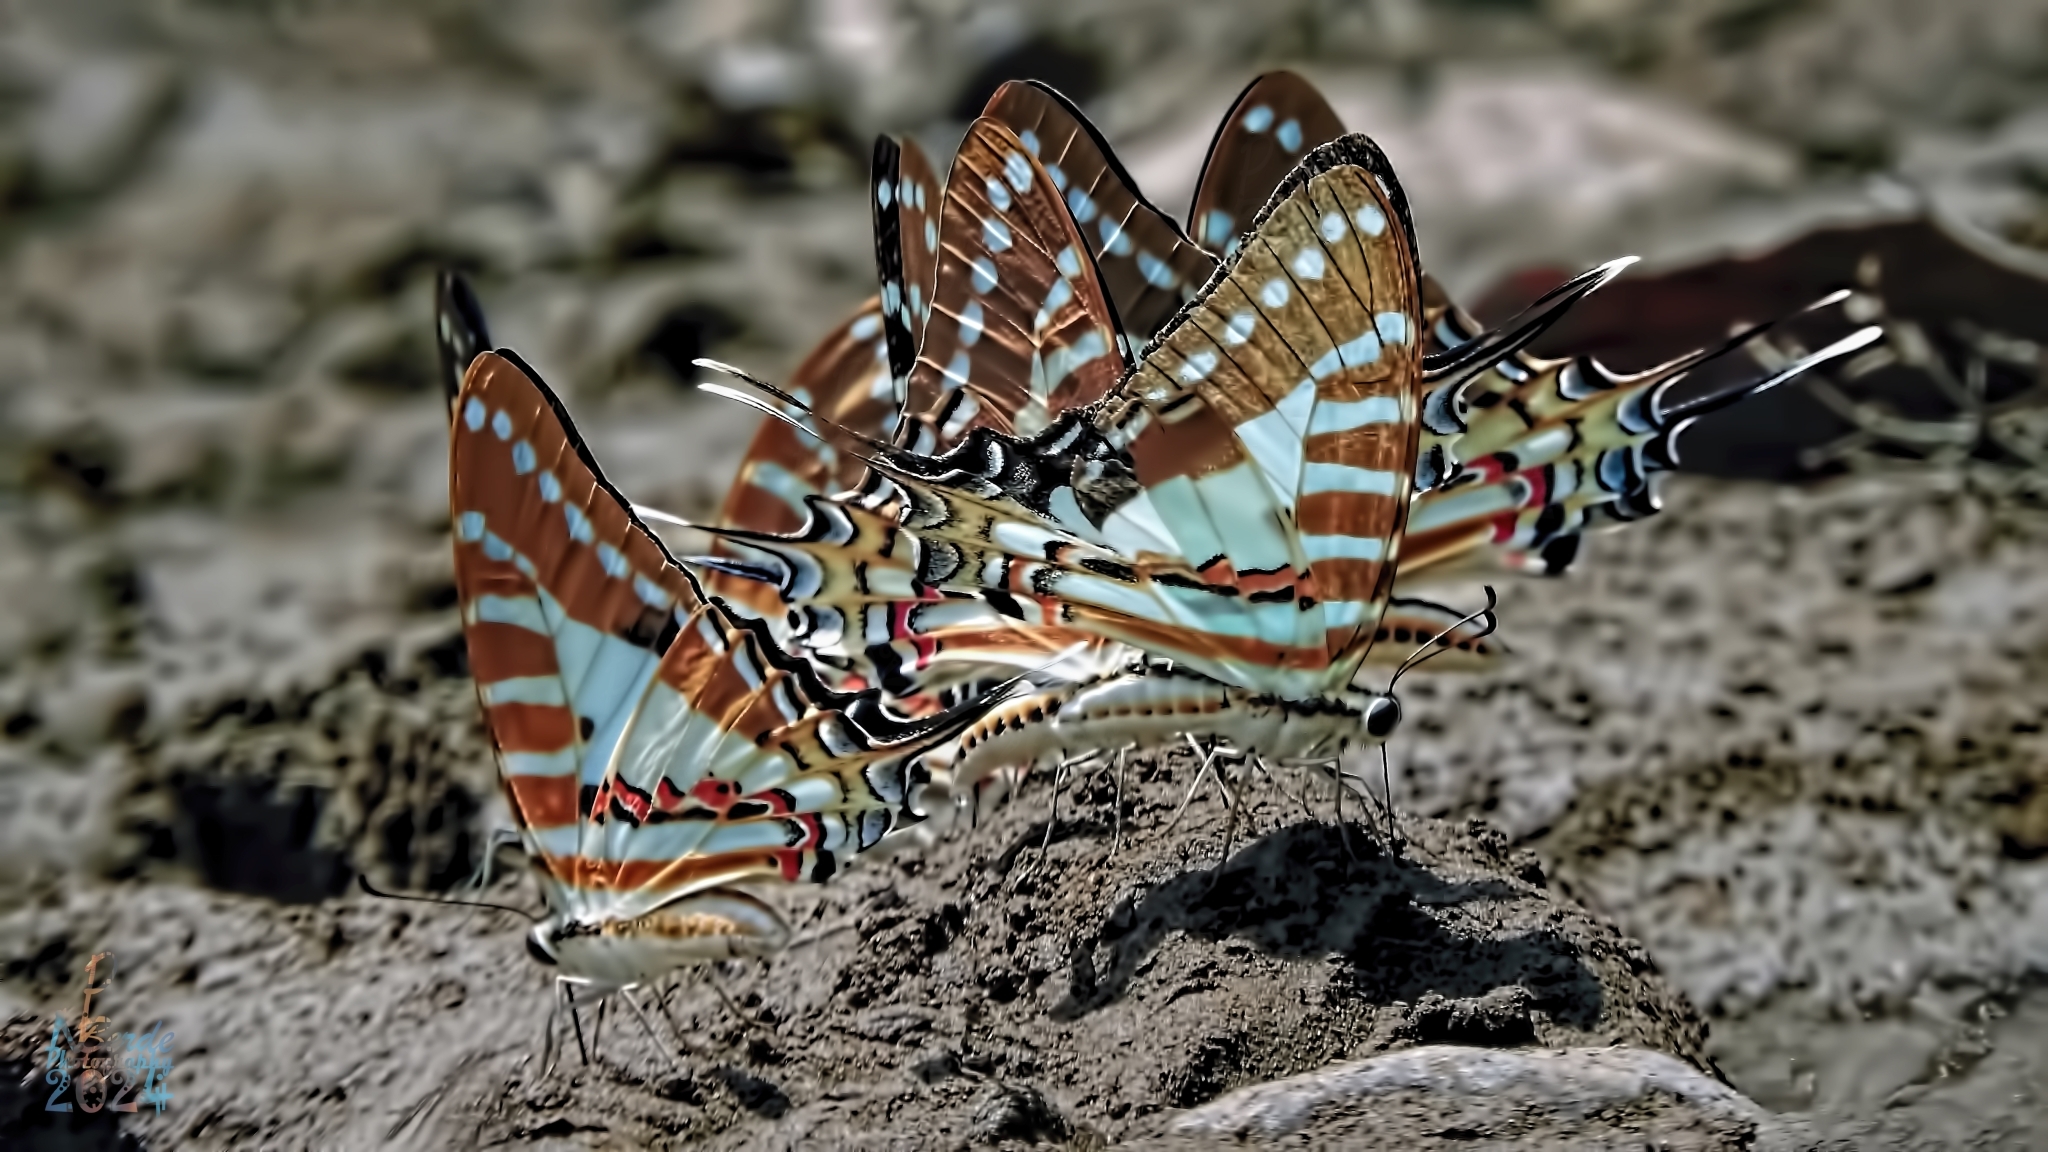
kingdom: Animalia
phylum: Arthropoda
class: Insecta
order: Lepidoptera
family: Papilionidae
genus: Graphium
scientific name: Graphium nomius
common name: Spot swordtail
